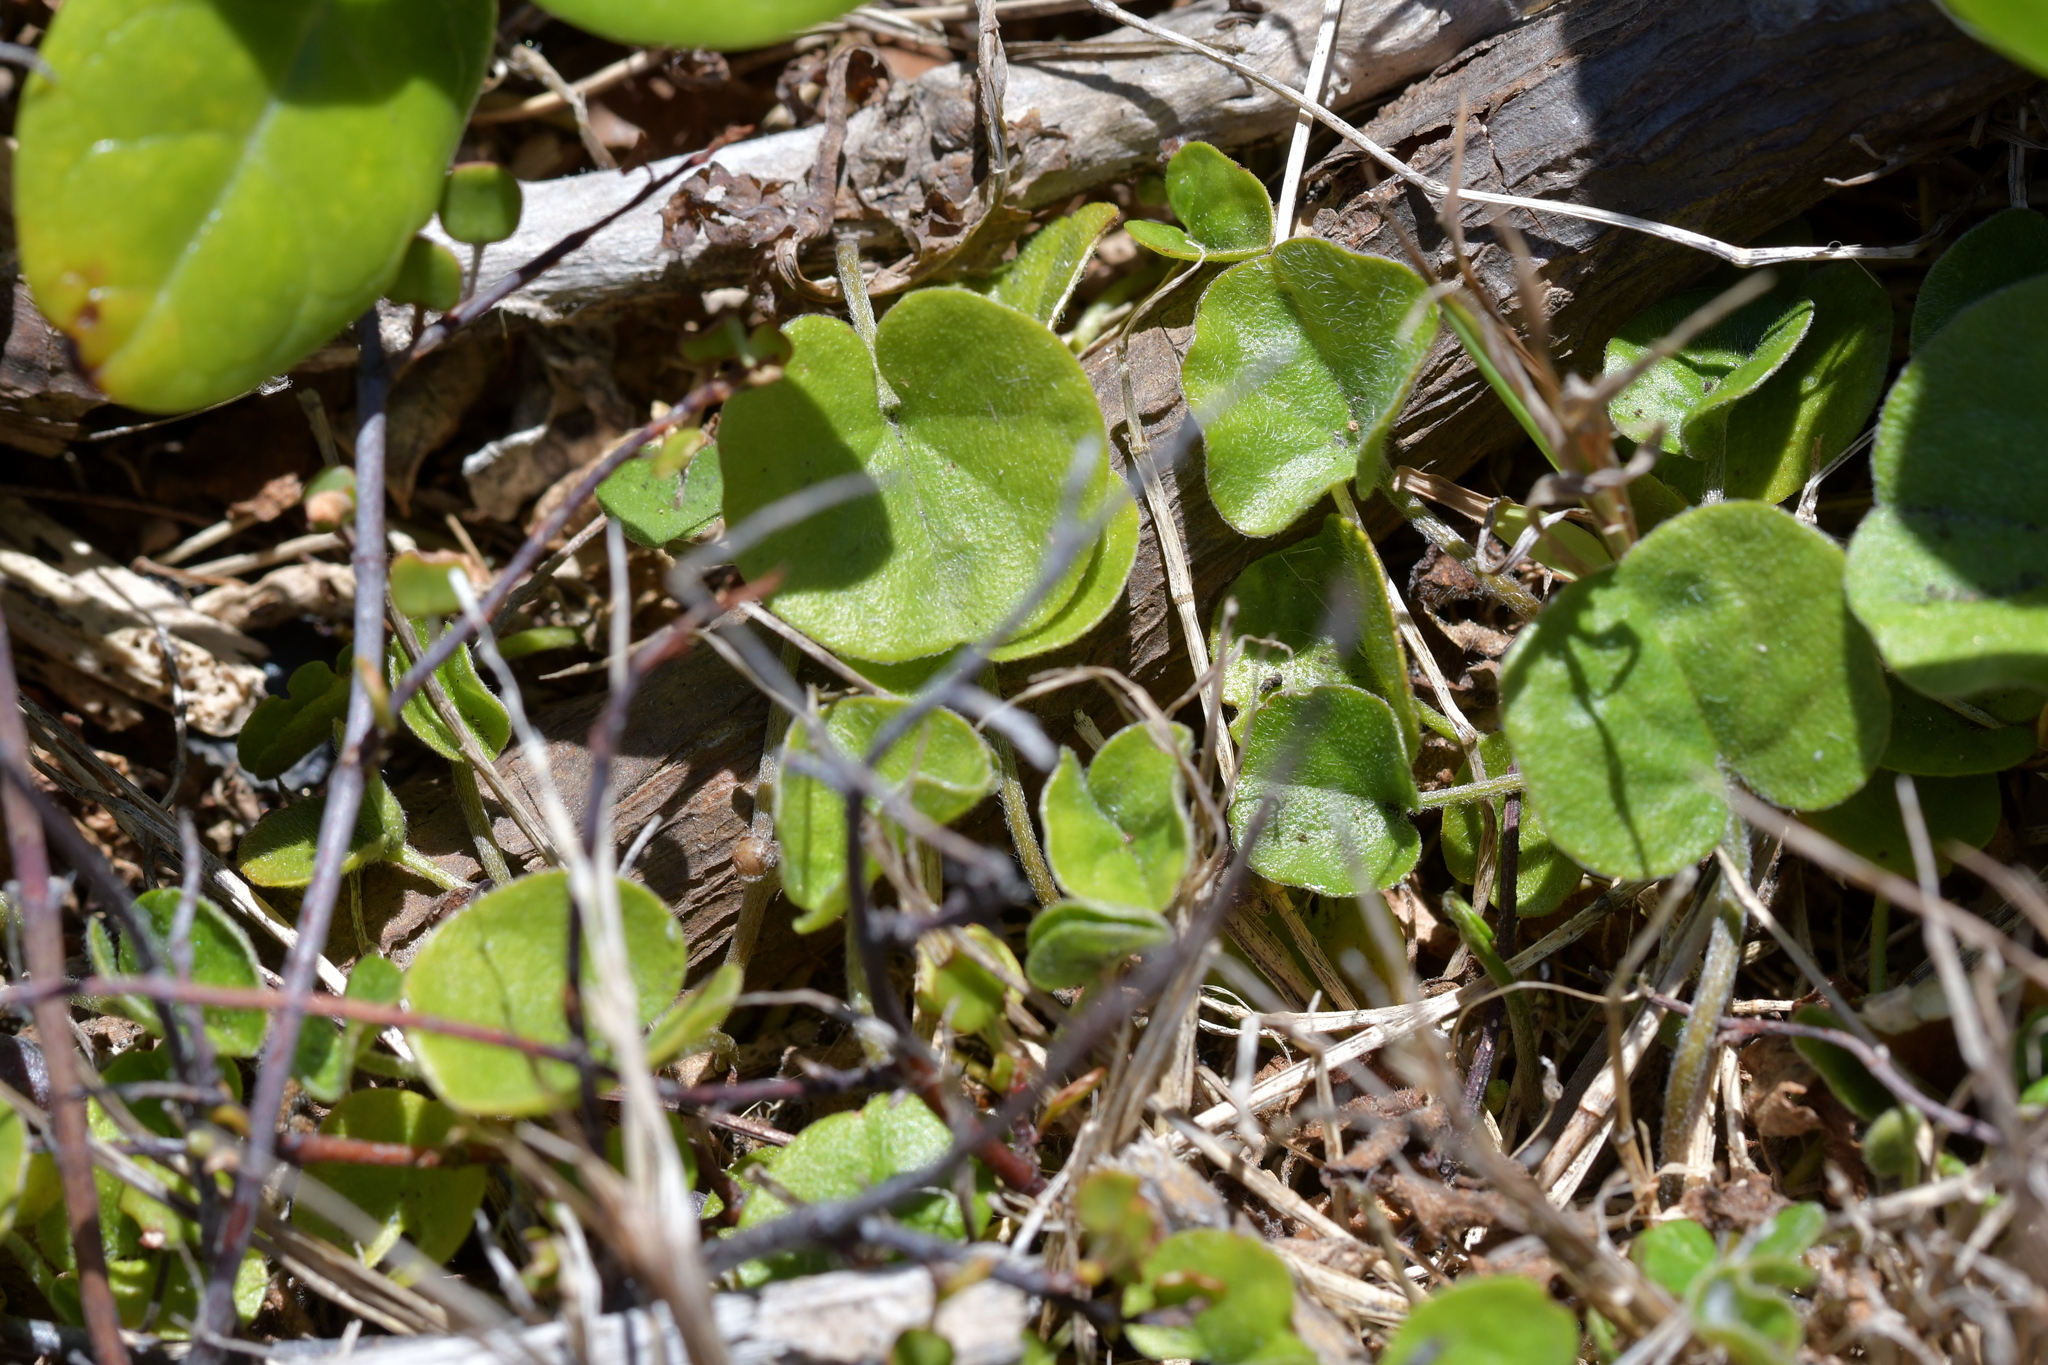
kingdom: Plantae
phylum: Tracheophyta
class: Magnoliopsida
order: Solanales
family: Convolvulaceae
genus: Dichondra
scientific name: Dichondra repens
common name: Kidneyweed
